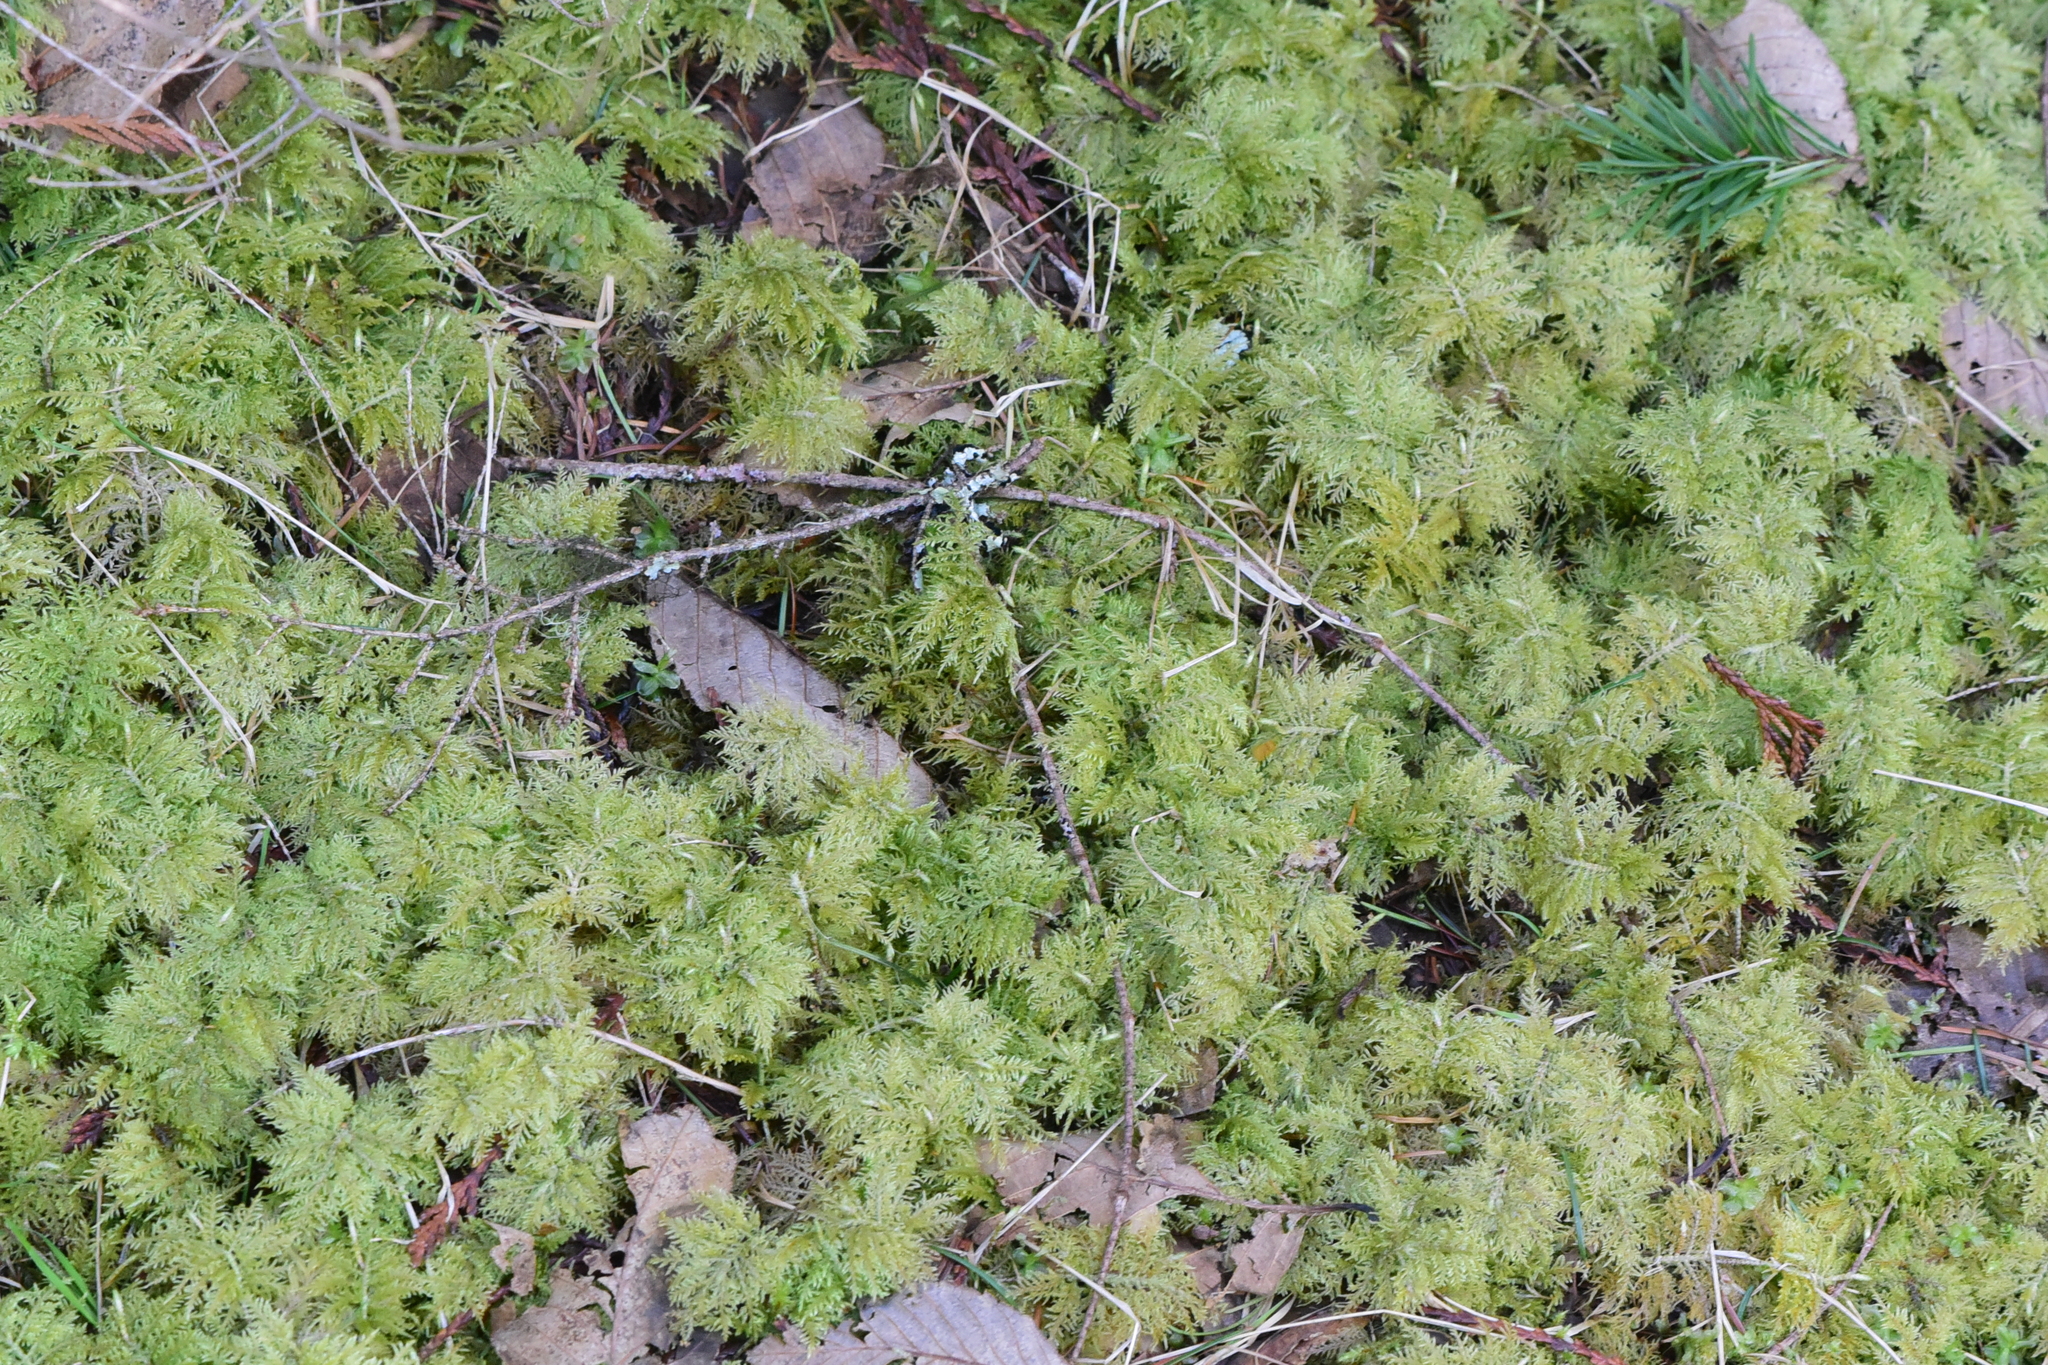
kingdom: Plantae
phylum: Bryophyta
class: Bryopsida
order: Hypnales
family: Hylocomiaceae
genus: Hylocomium
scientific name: Hylocomium splendens
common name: Stairstep moss
